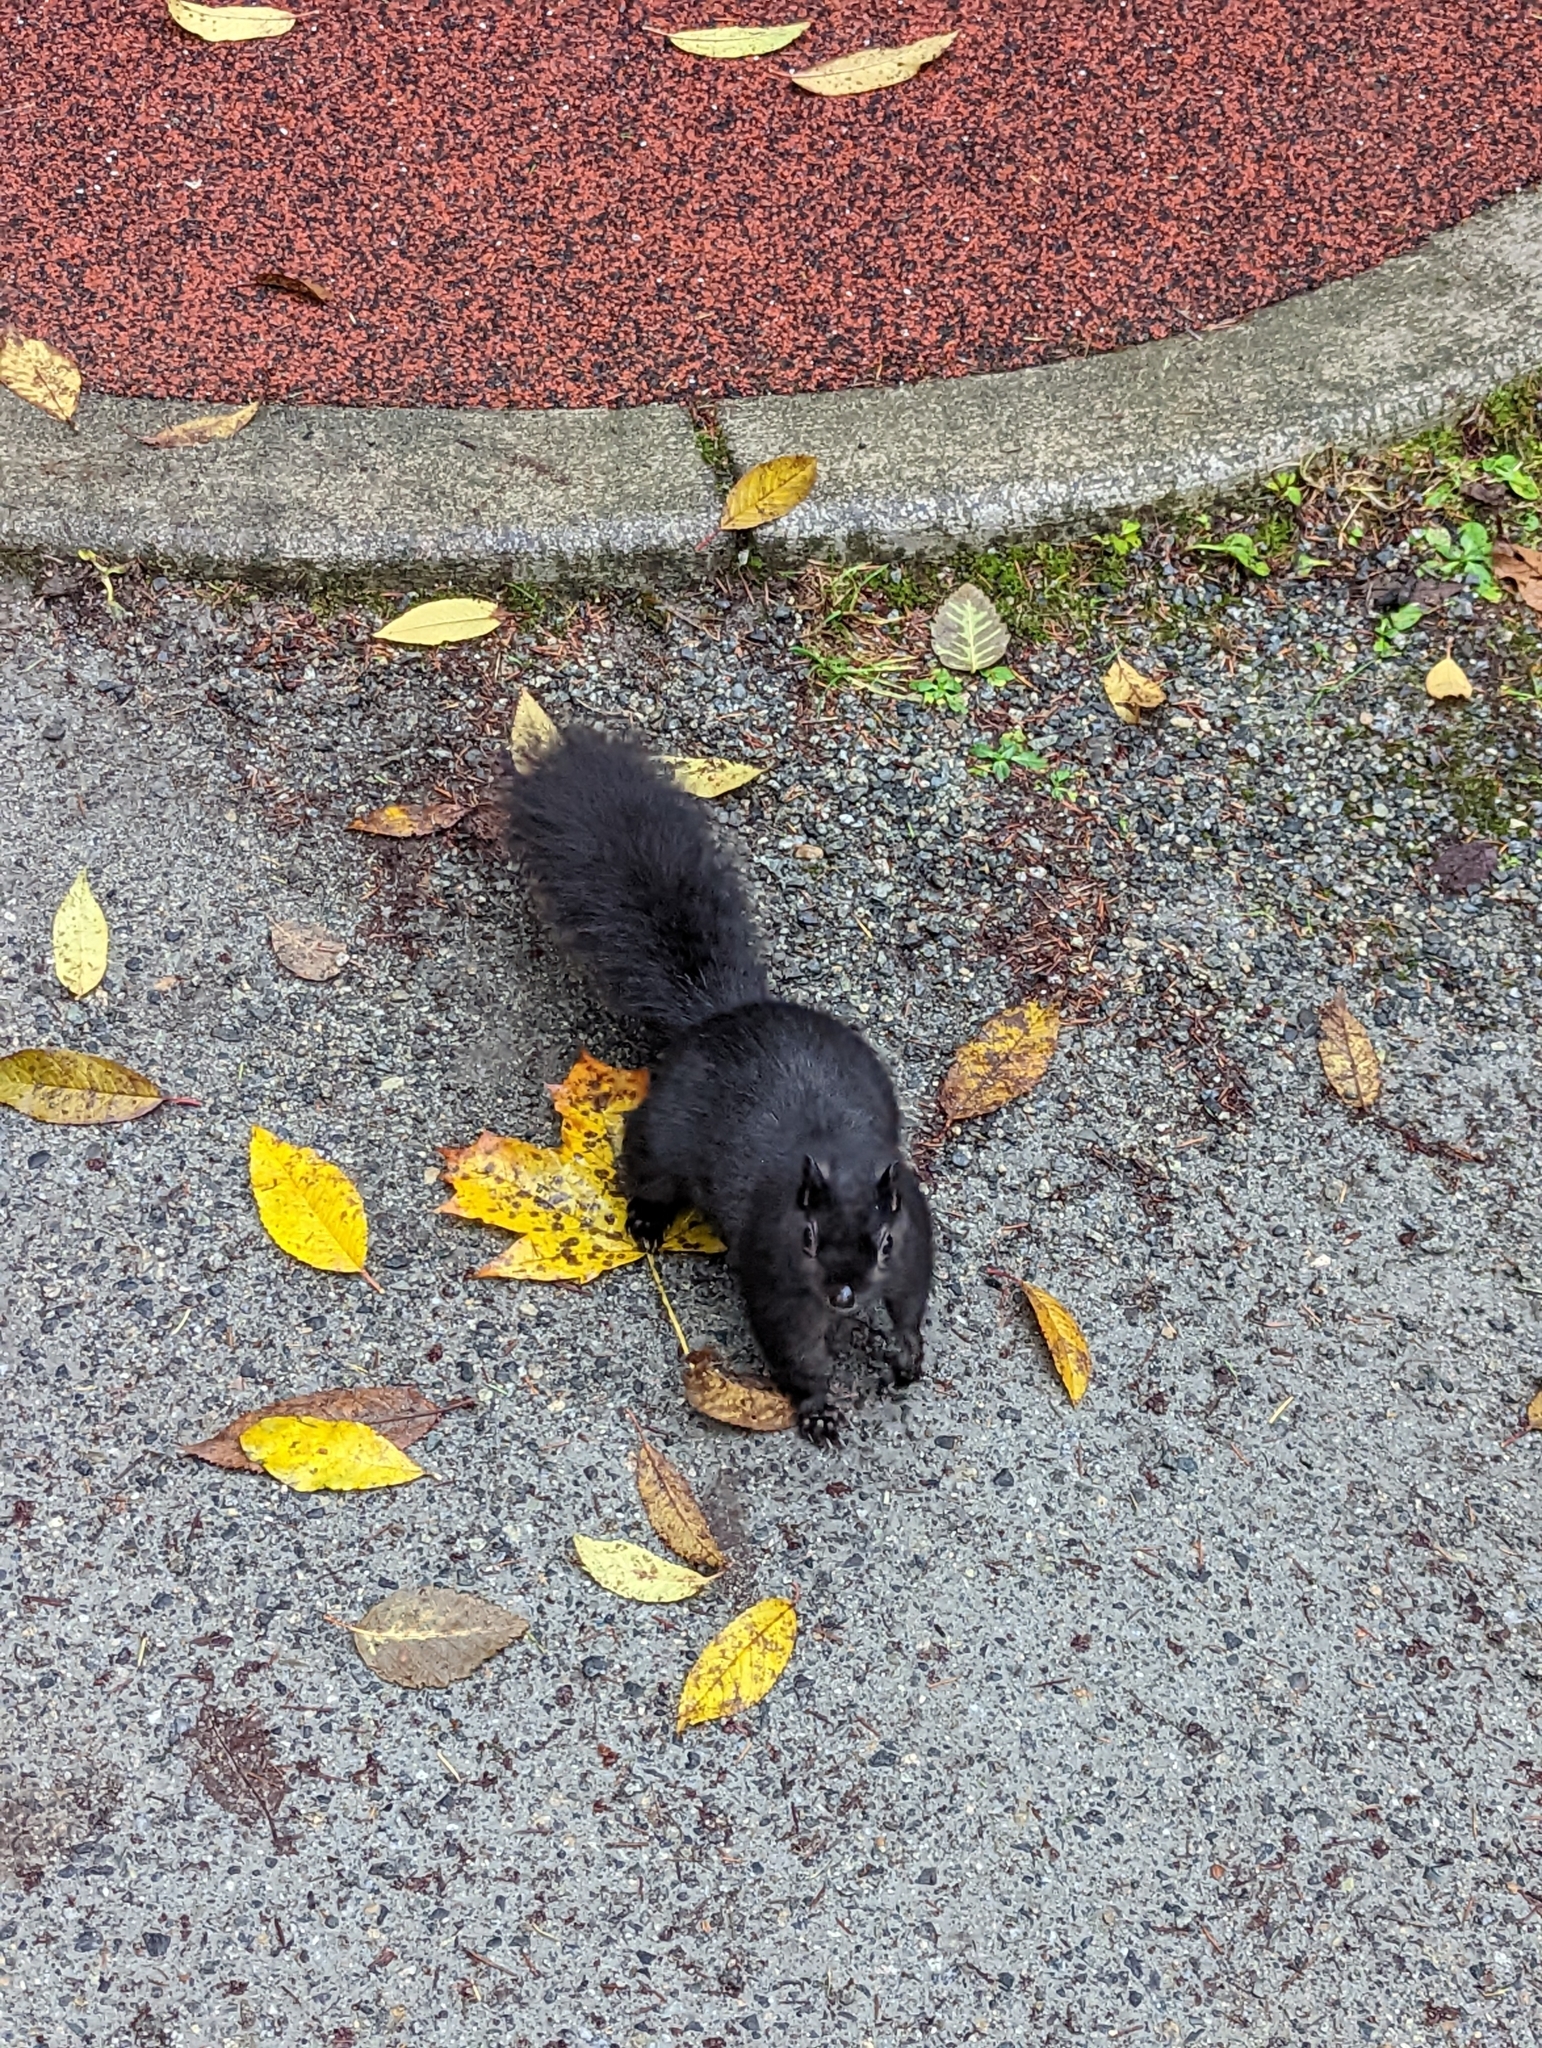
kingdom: Animalia
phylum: Chordata
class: Mammalia
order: Rodentia
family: Sciuridae
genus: Sciurus
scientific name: Sciurus carolinensis
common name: Eastern gray squirrel
